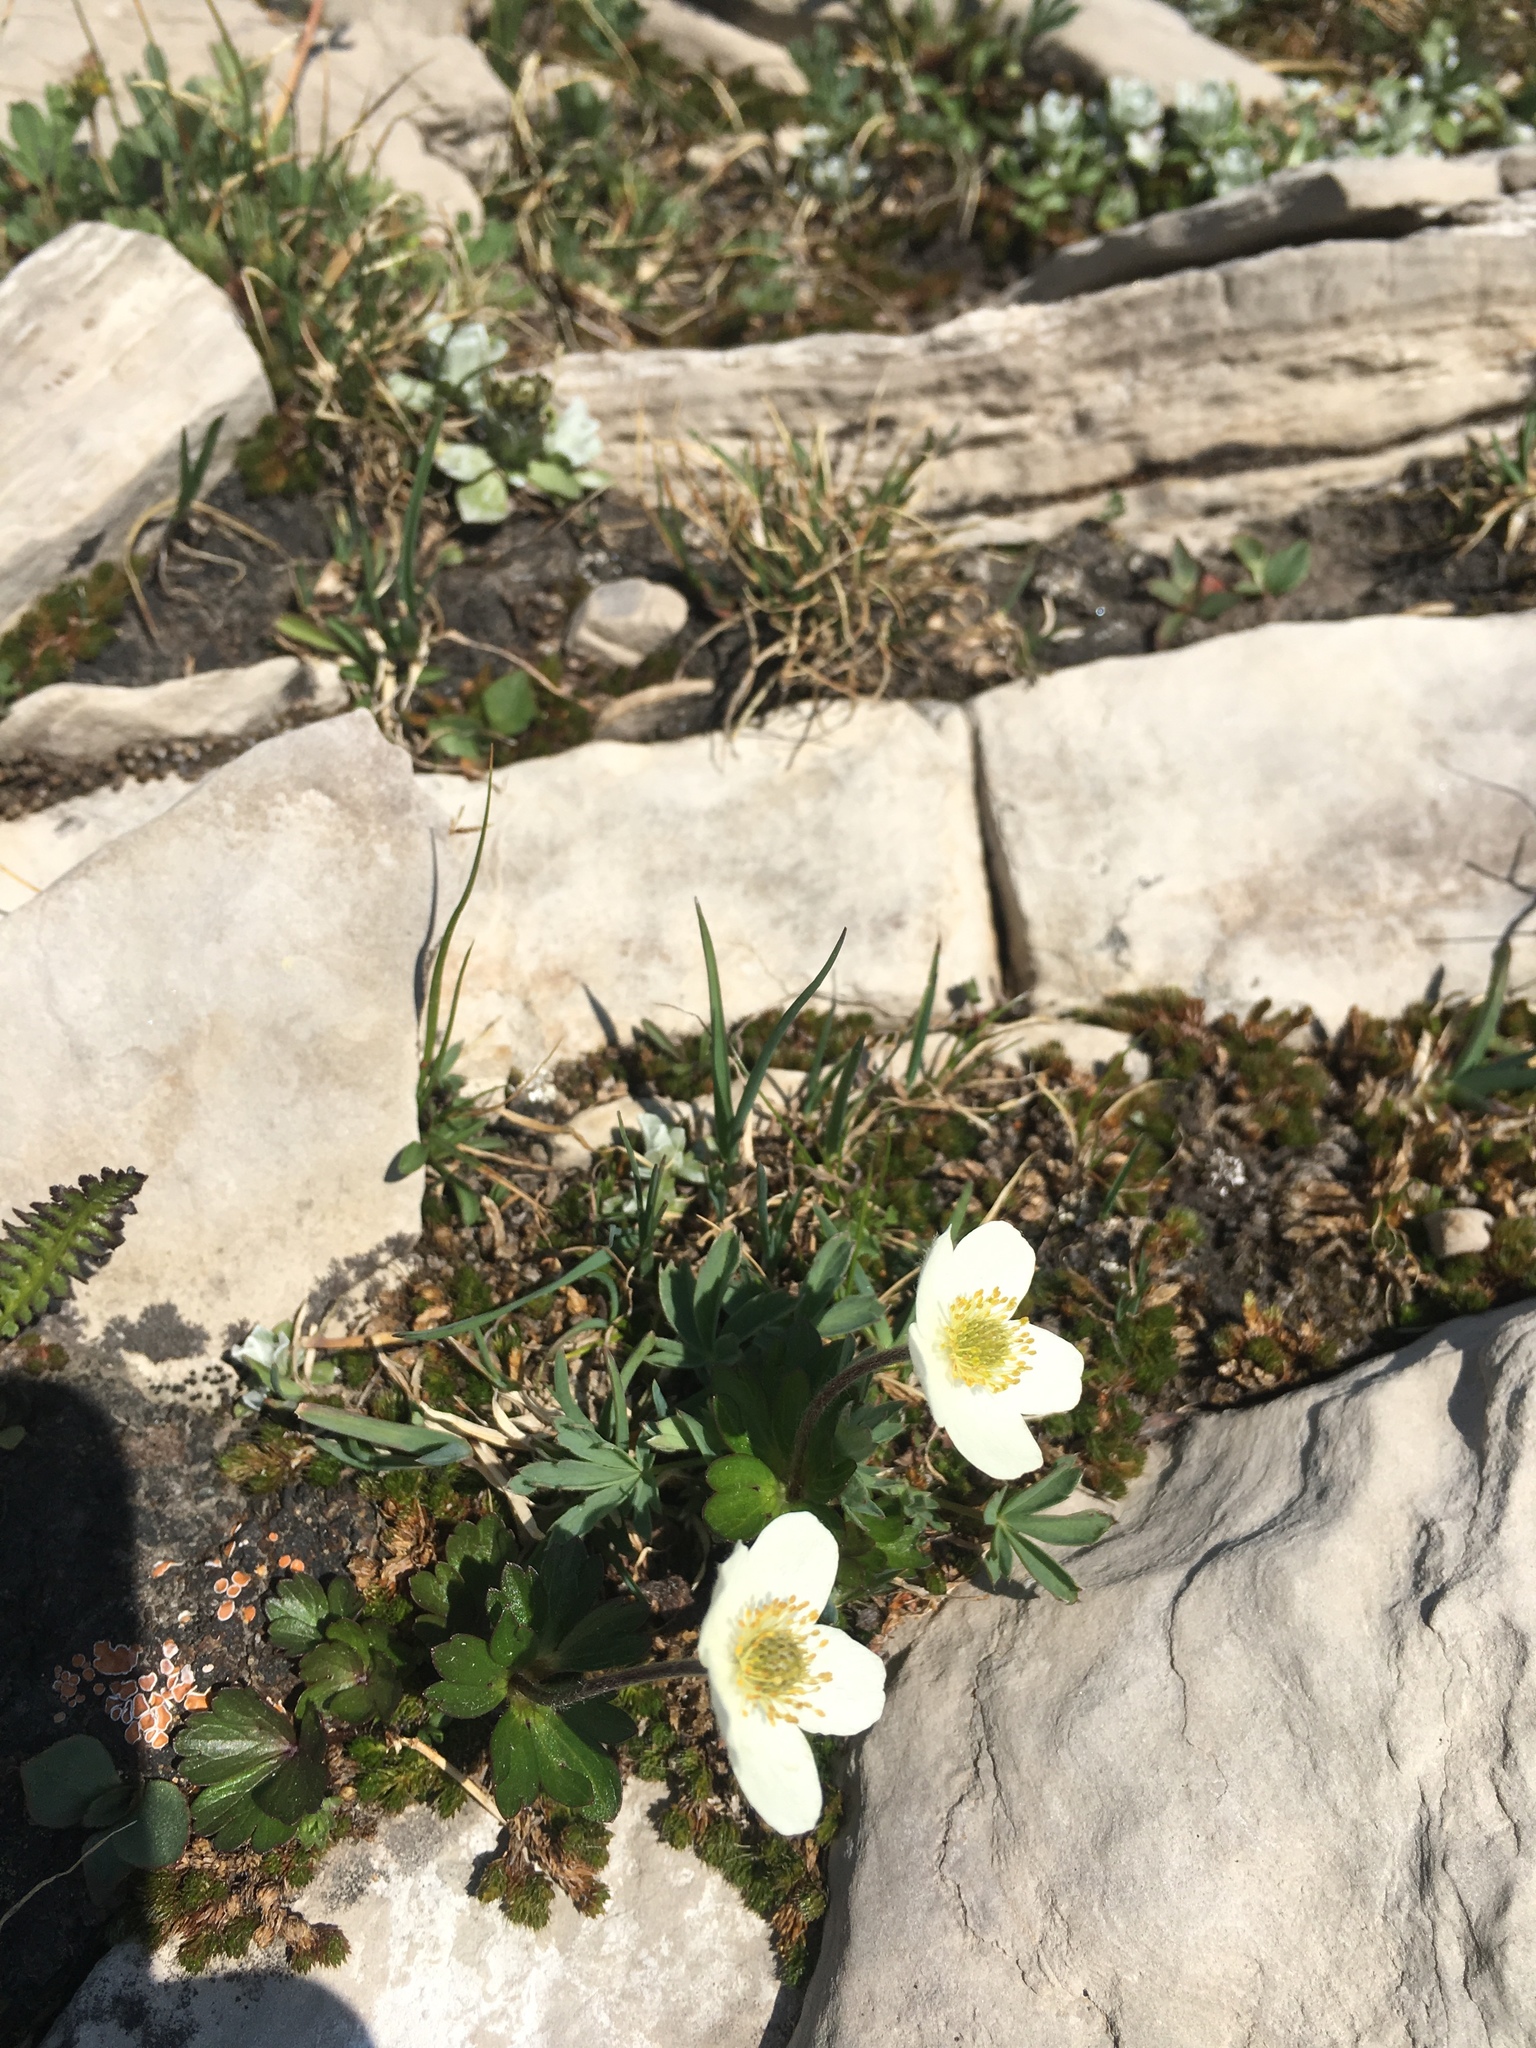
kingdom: Plantae
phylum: Tracheophyta
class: Magnoliopsida
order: Ranunculales
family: Ranunculaceae
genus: Anemone
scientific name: Anemone parviflora
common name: Northern anemone
